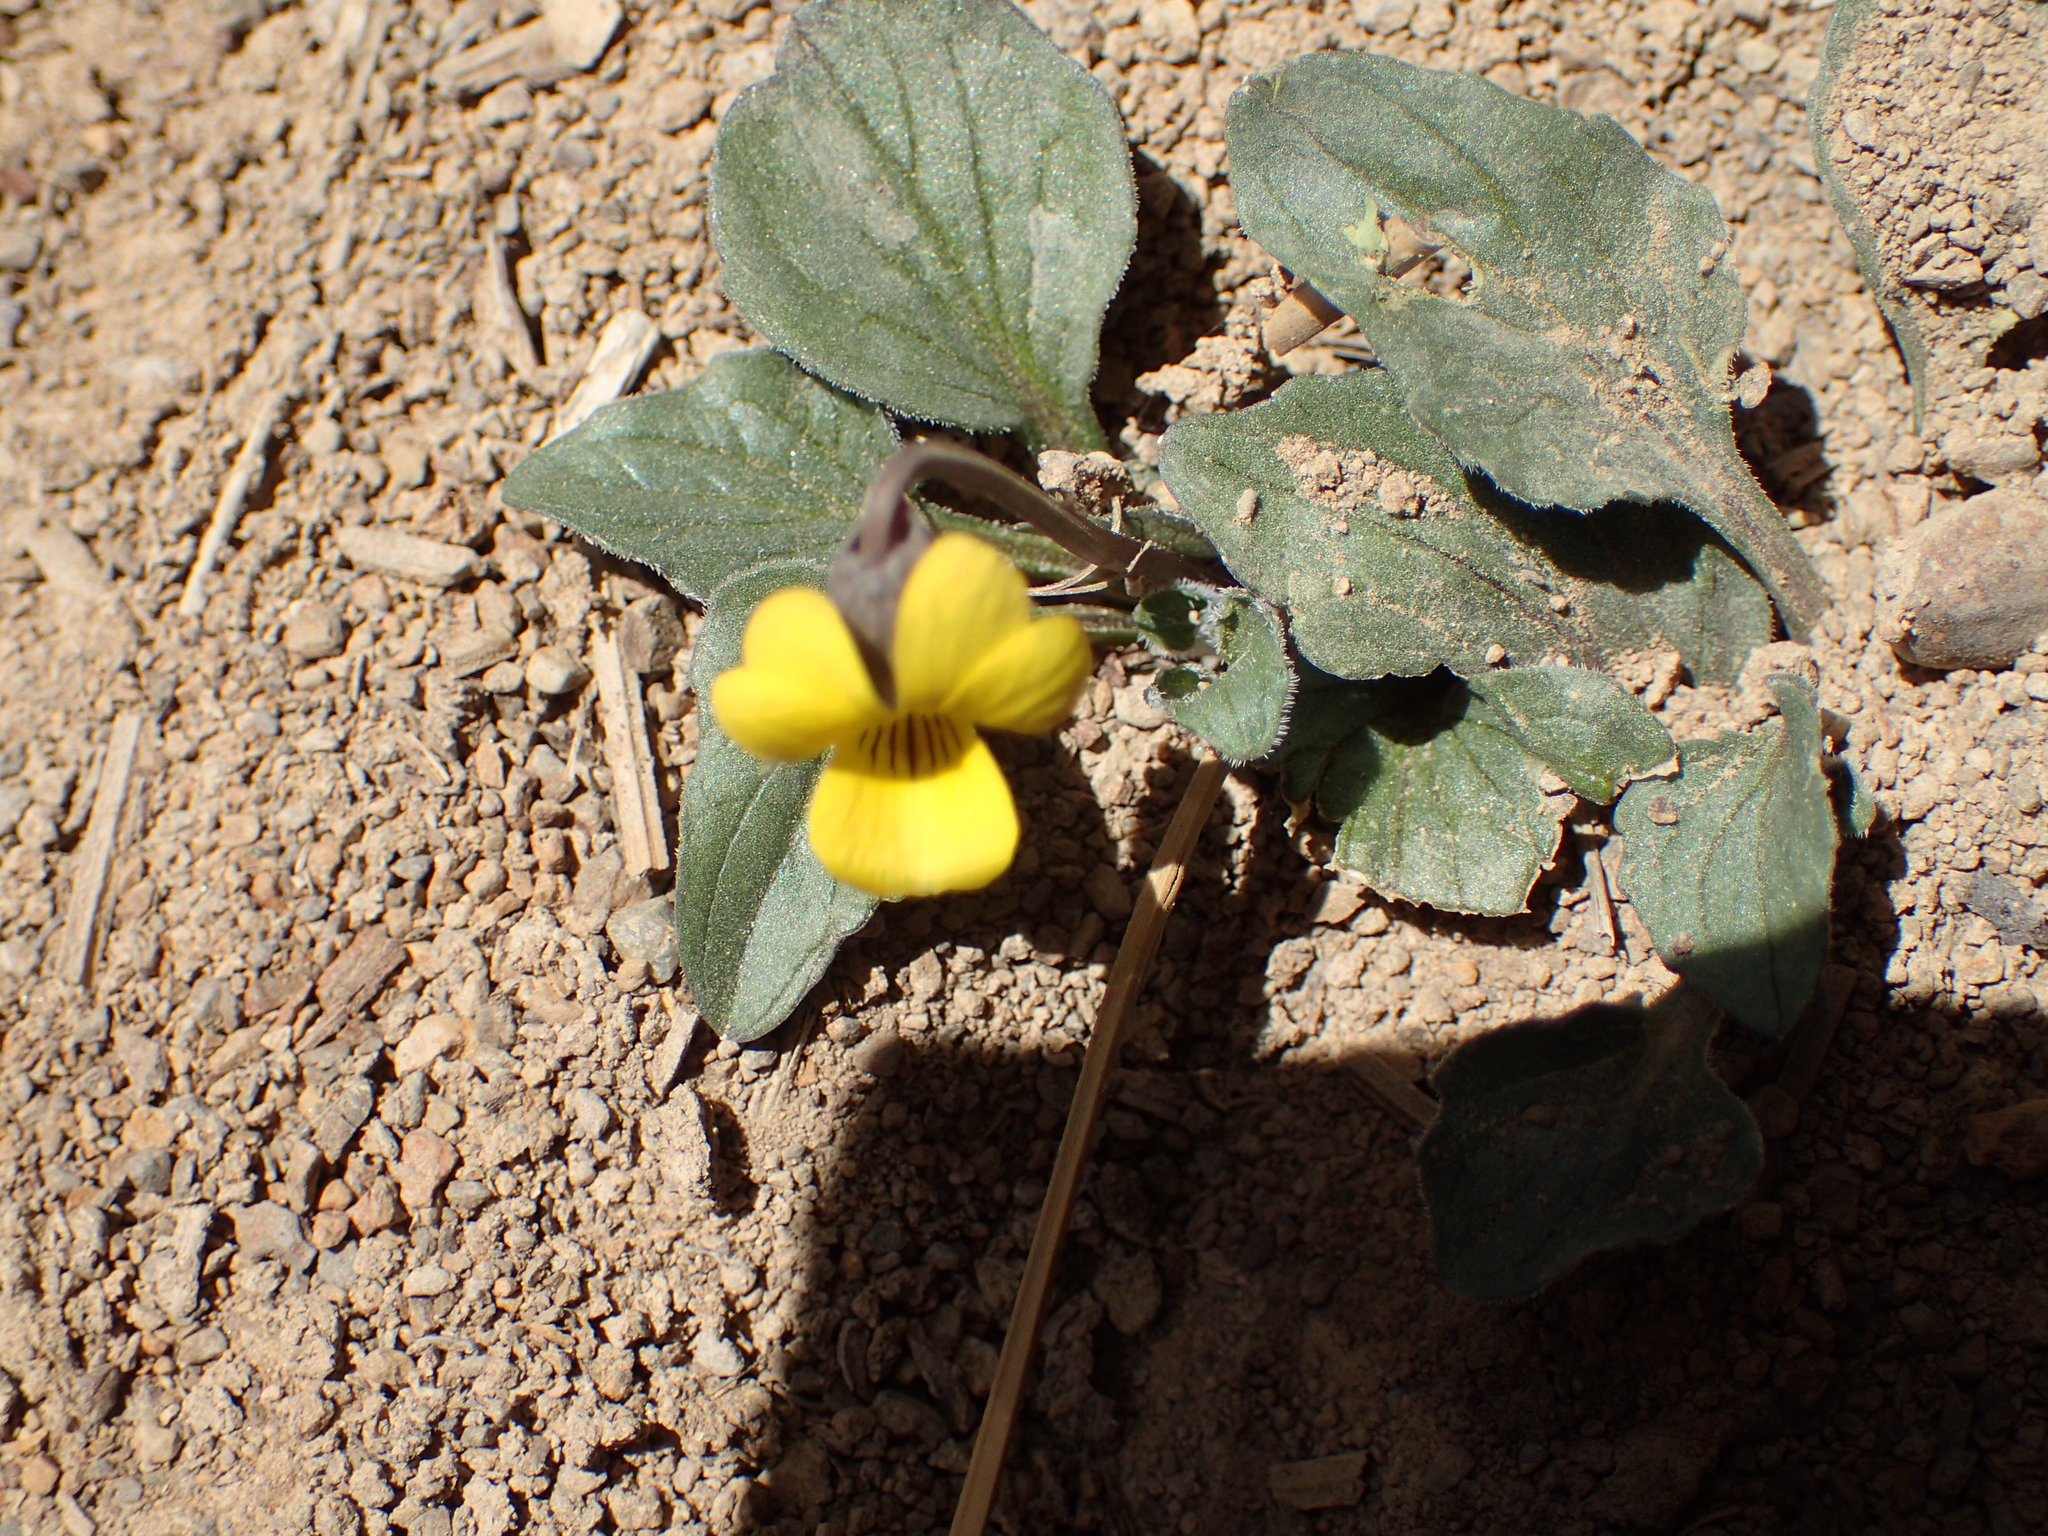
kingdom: Plantae
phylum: Tracheophyta
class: Magnoliopsida
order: Malpighiales
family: Violaceae
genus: Viola
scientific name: Viola purpurea
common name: Pine violet
